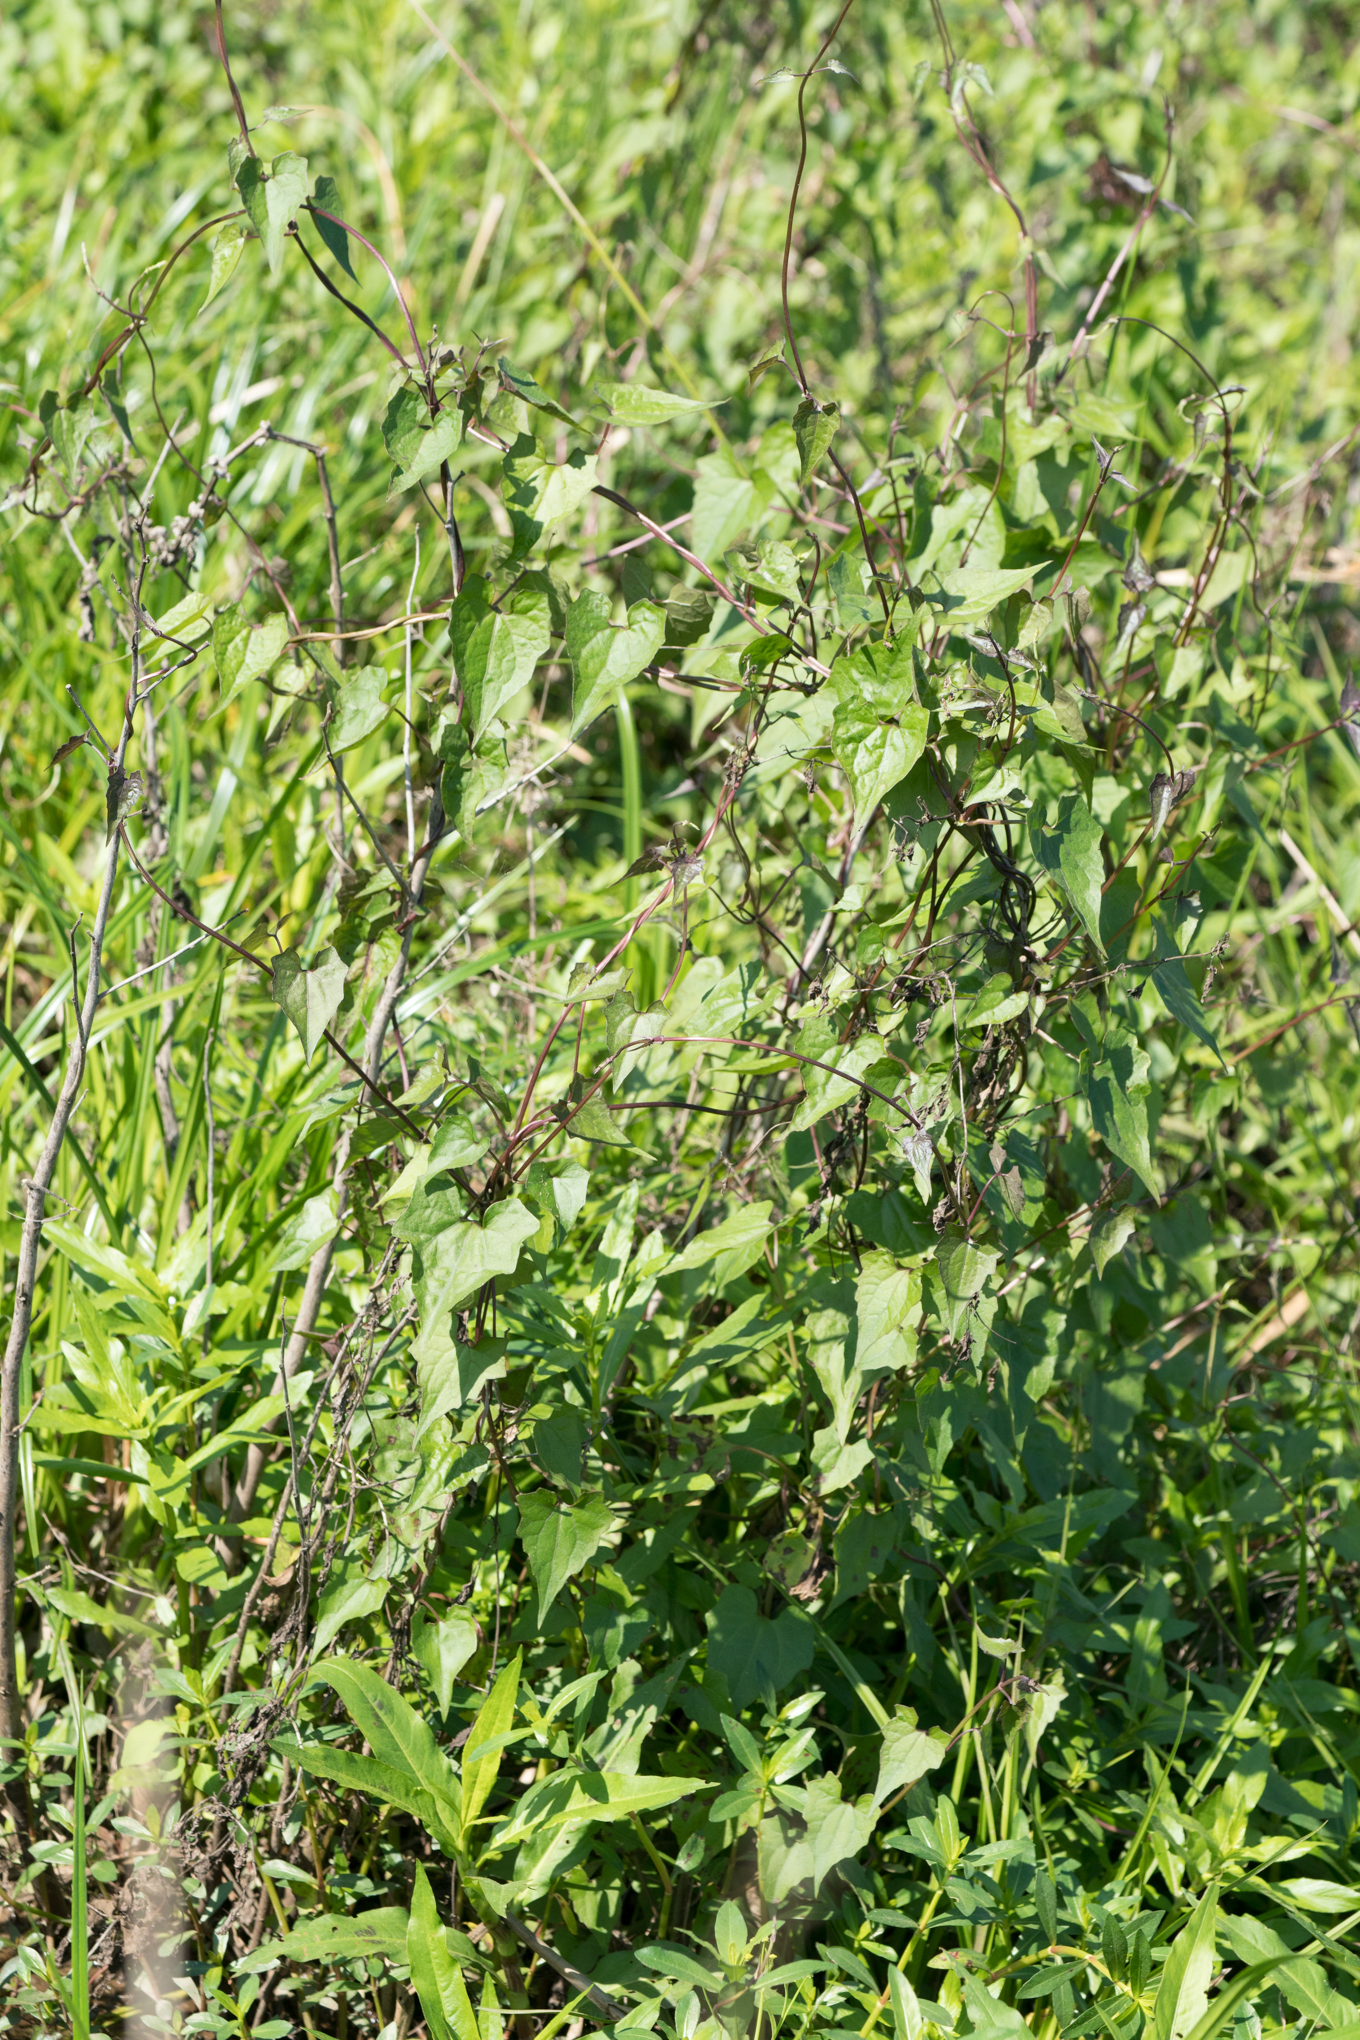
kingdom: Plantae
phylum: Tracheophyta
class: Magnoliopsida
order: Asterales
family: Asteraceae
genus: Mikania
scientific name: Mikania scandens
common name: Climbing hempvine
